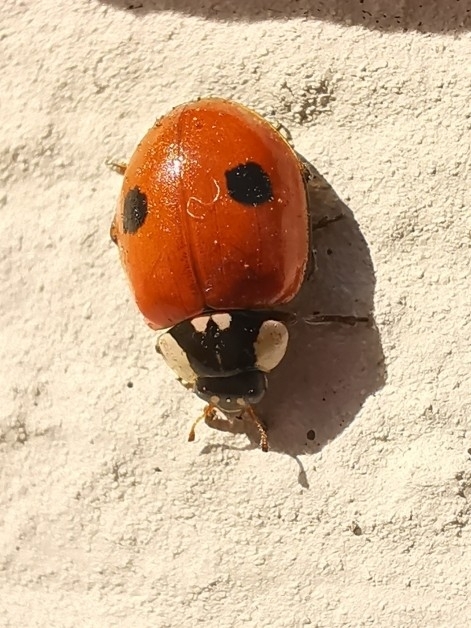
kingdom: Animalia
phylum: Arthropoda
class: Insecta
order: Coleoptera
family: Coccinellidae
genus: Adalia
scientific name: Adalia bipunctata
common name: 2-spot ladybird
